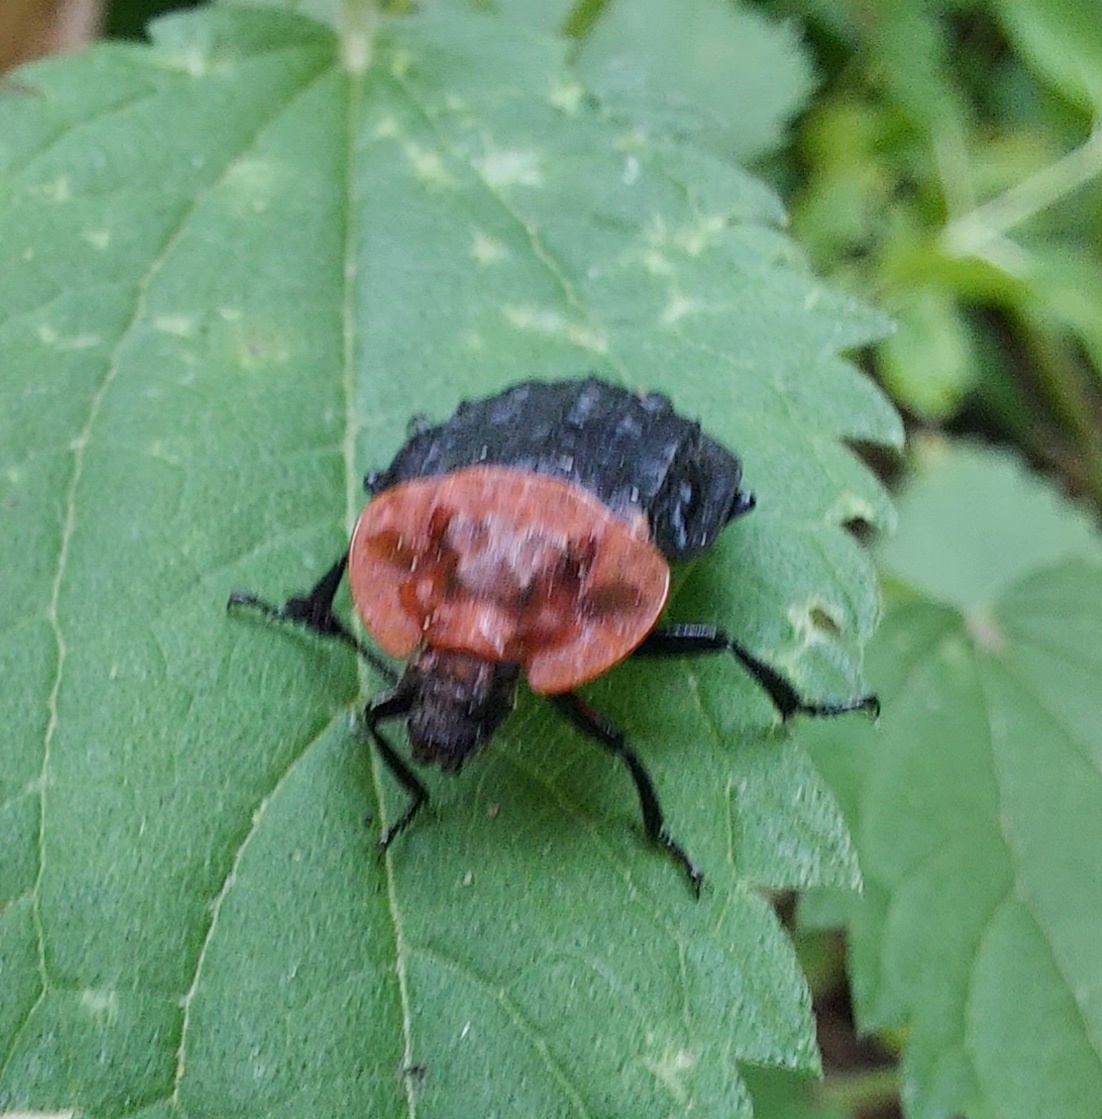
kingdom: Animalia
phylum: Arthropoda
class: Insecta
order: Coleoptera
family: Staphylinidae
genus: Oiceoptoma
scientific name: Oiceoptoma thoracicum
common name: Red-breasted carrion beetle
